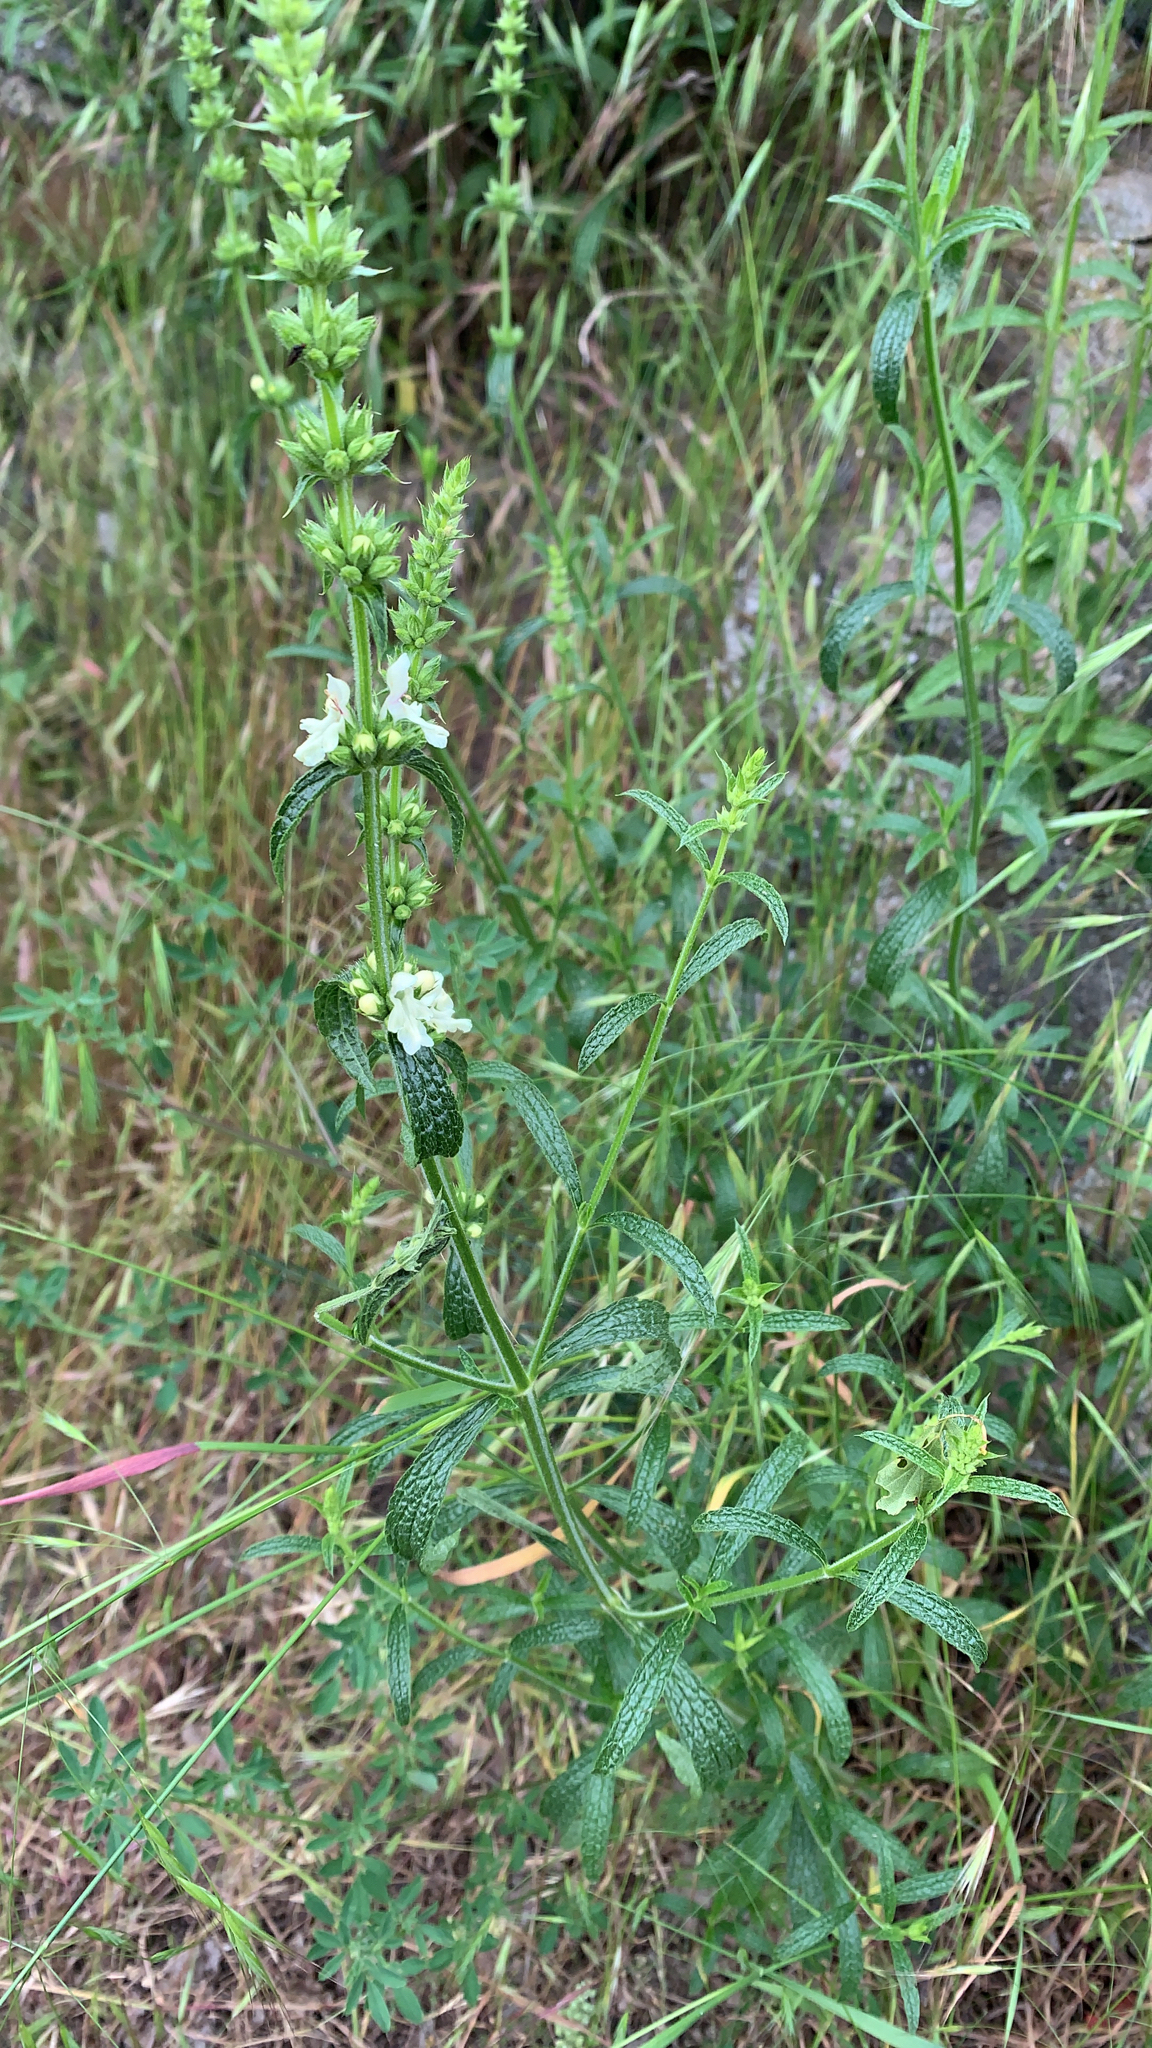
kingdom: Plantae
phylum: Tracheophyta
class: Magnoliopsida
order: Lamiales
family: Lamiaceae
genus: Stachys
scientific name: Stachys recta
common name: Perennial yellow-woundwort
